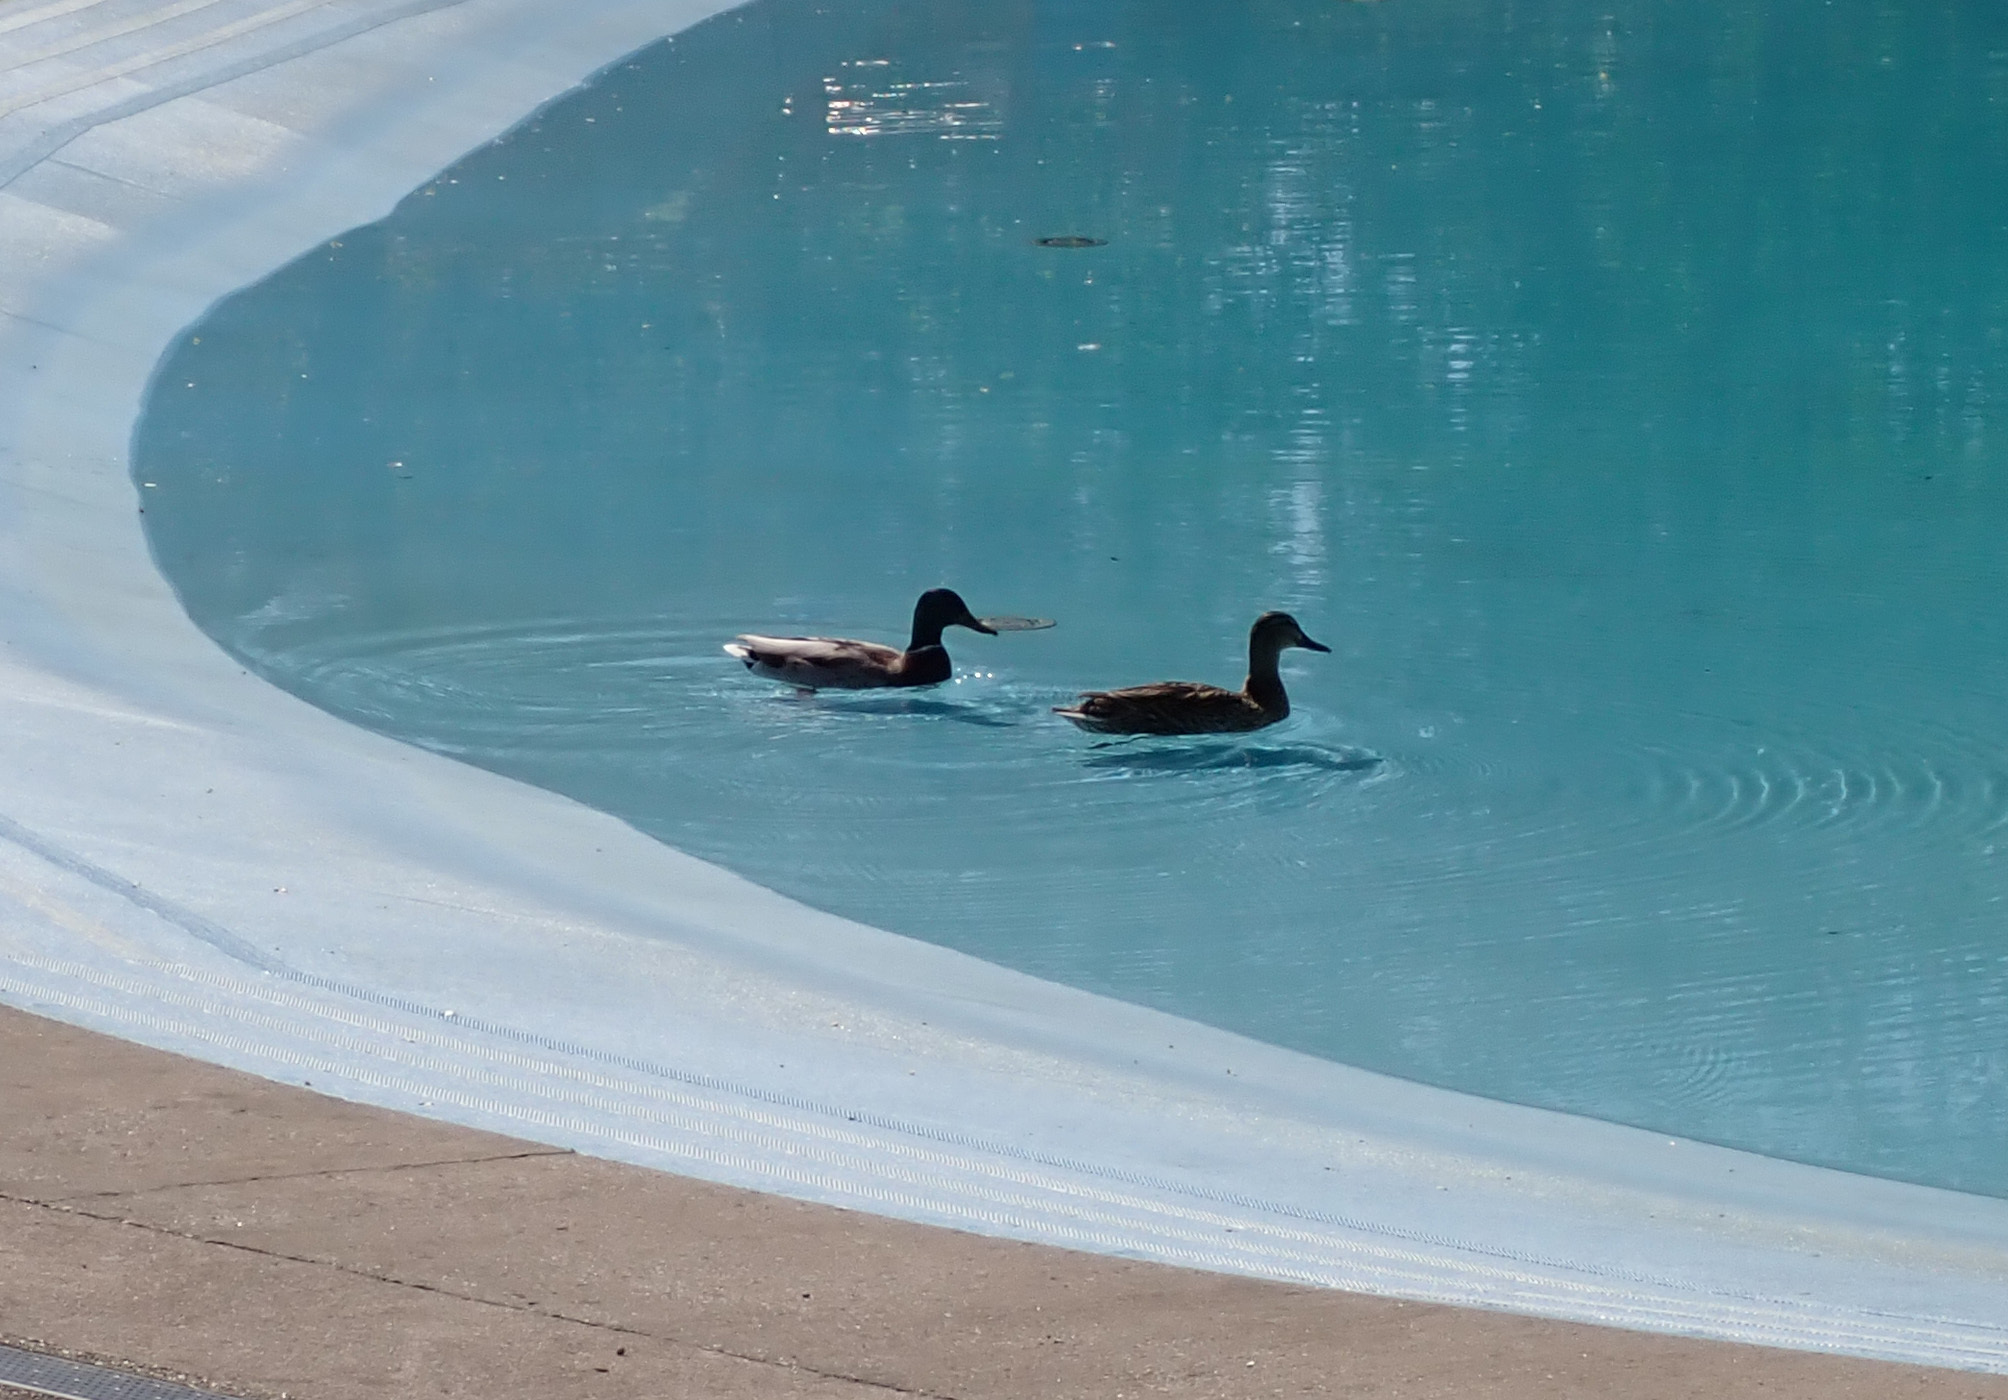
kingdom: Animalia
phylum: Chordata
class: Aves
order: Anseriformes
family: Anatidae
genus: Anas
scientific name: Anas platyrhynchos
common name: Mallard
